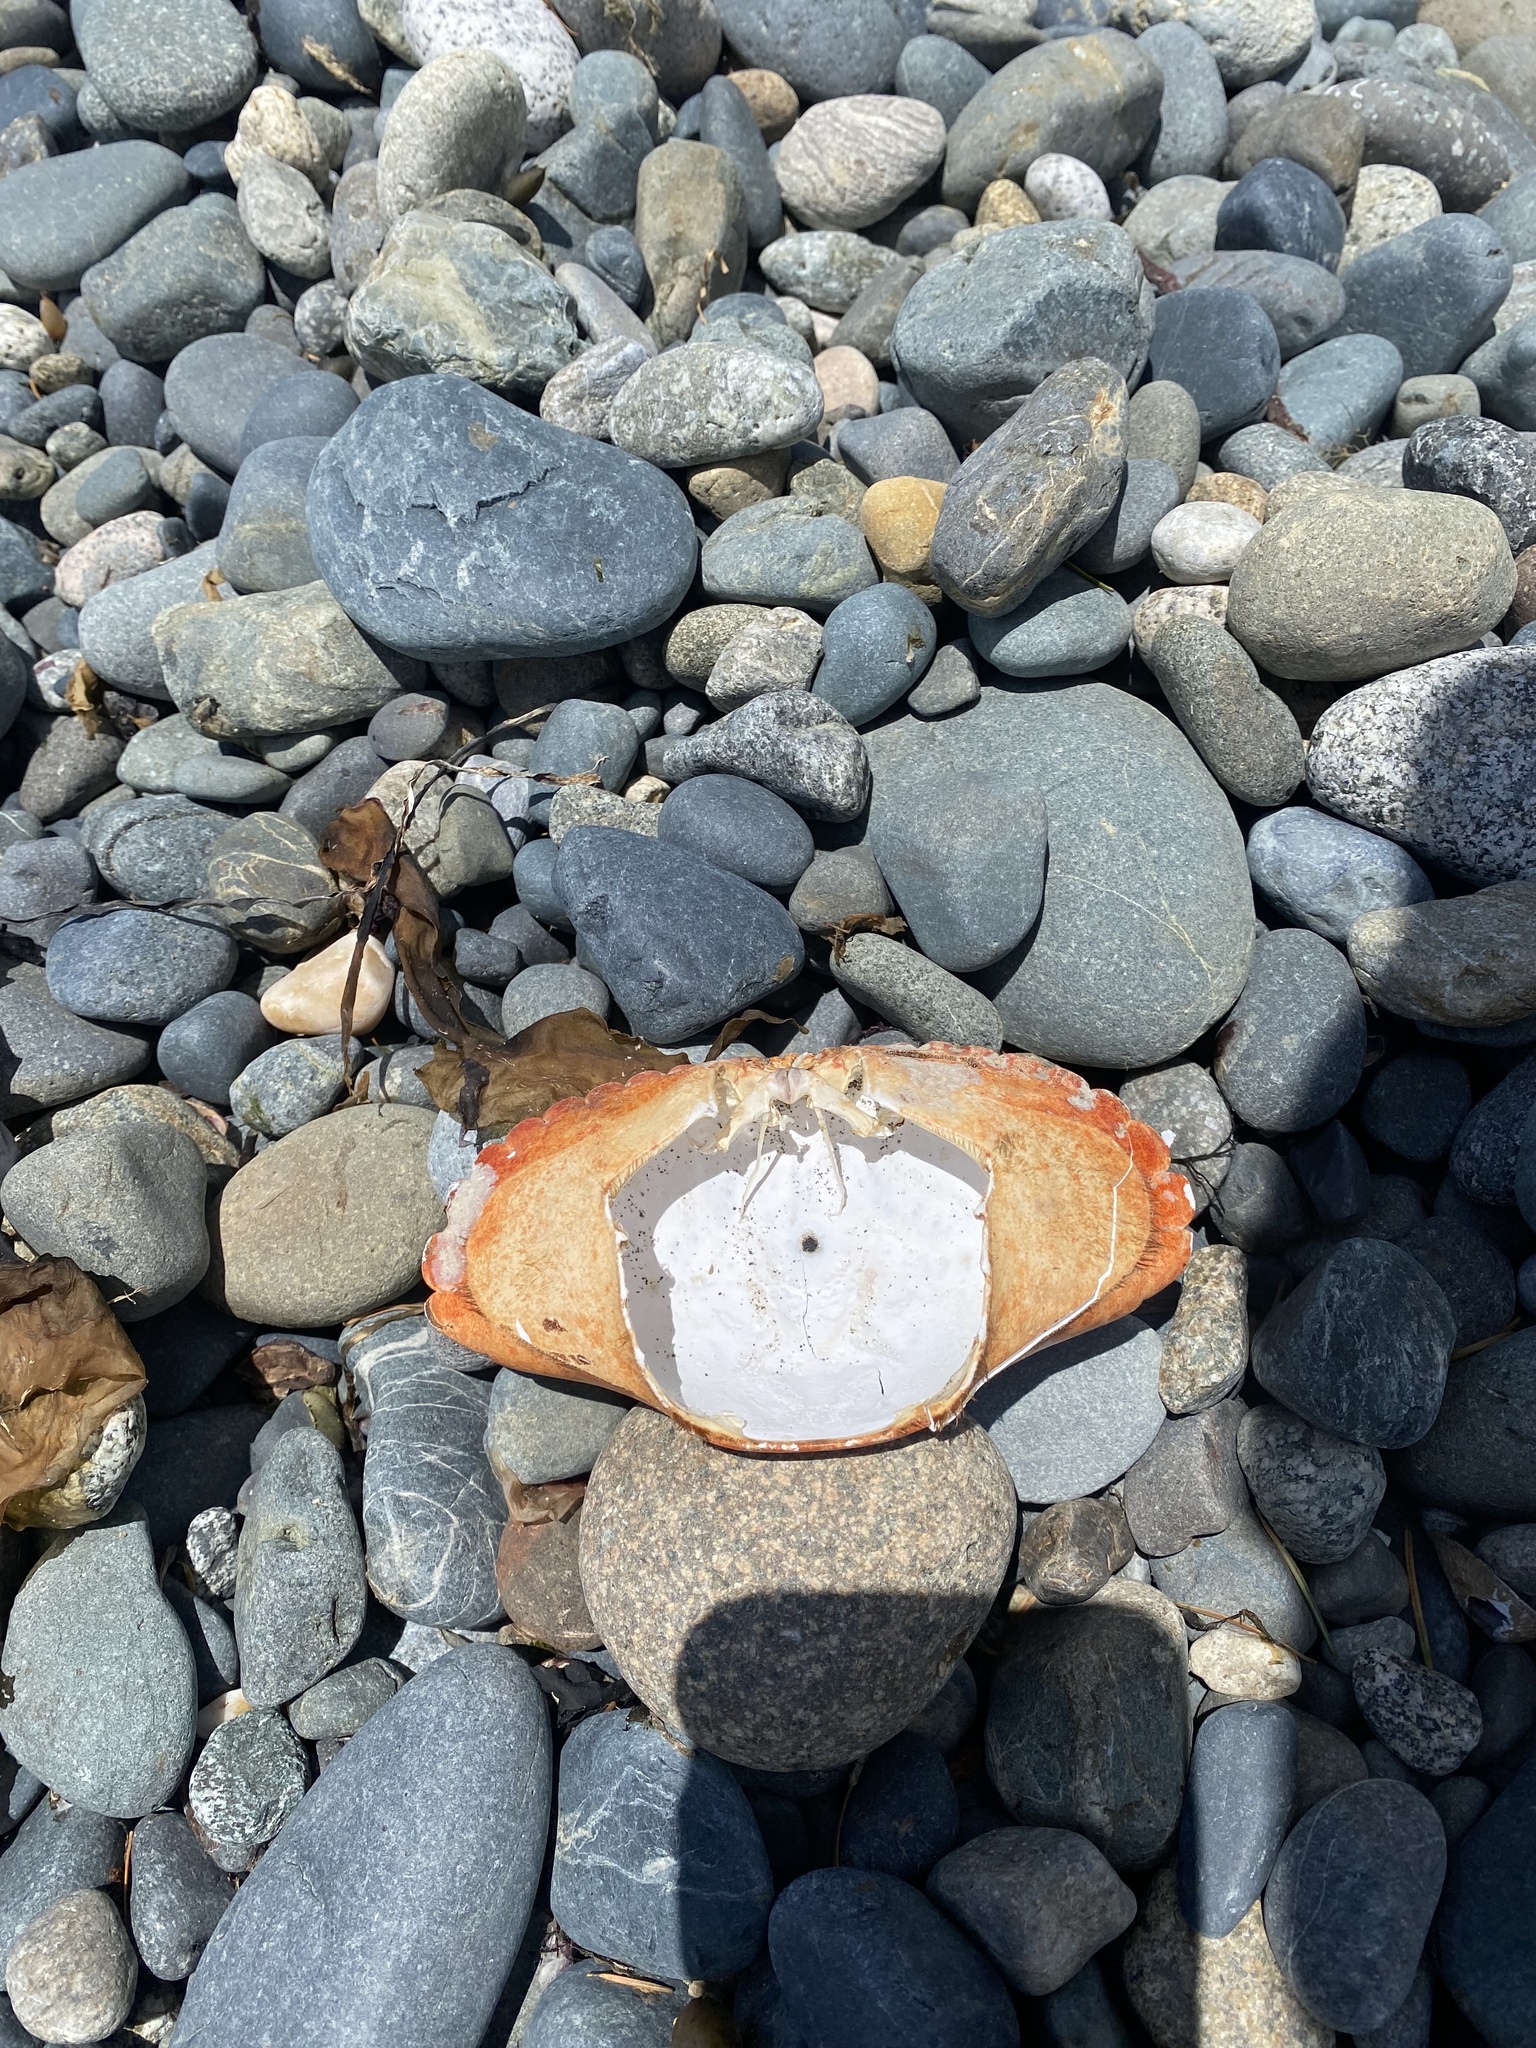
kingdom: Animalia
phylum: Arthropoda
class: Malacostraca
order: Decapoda
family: Cancridae
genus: Cancer
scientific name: Cancer productus
